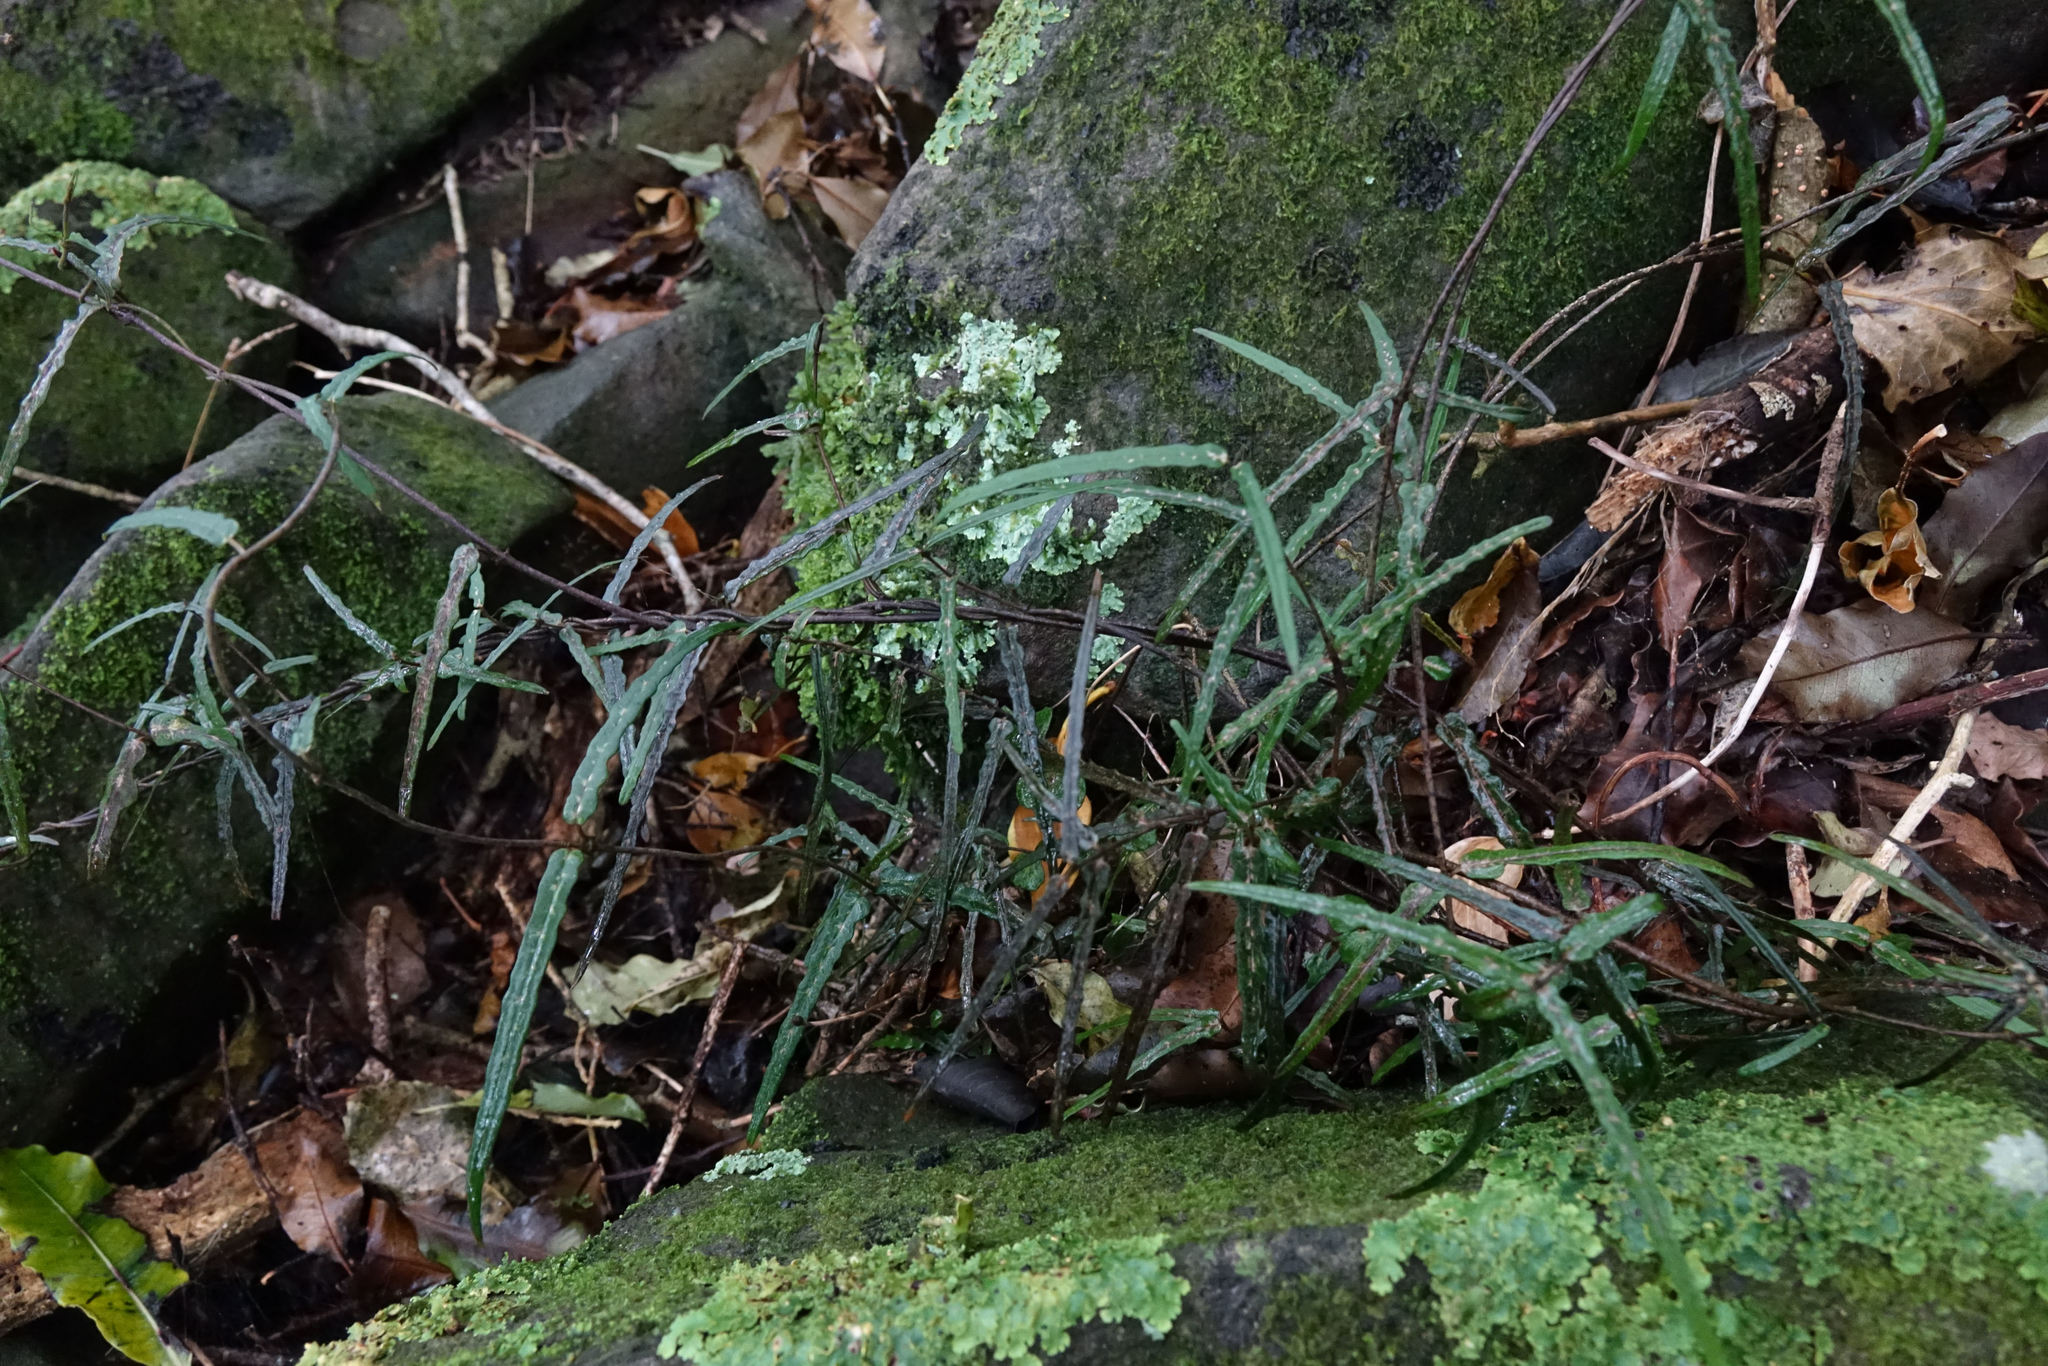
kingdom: Plantae
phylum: Tracheophyta
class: Magnoliopsida
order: Gentianales
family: Apocynaceae
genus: Parsonsia
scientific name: Parsonsia heterophylla
